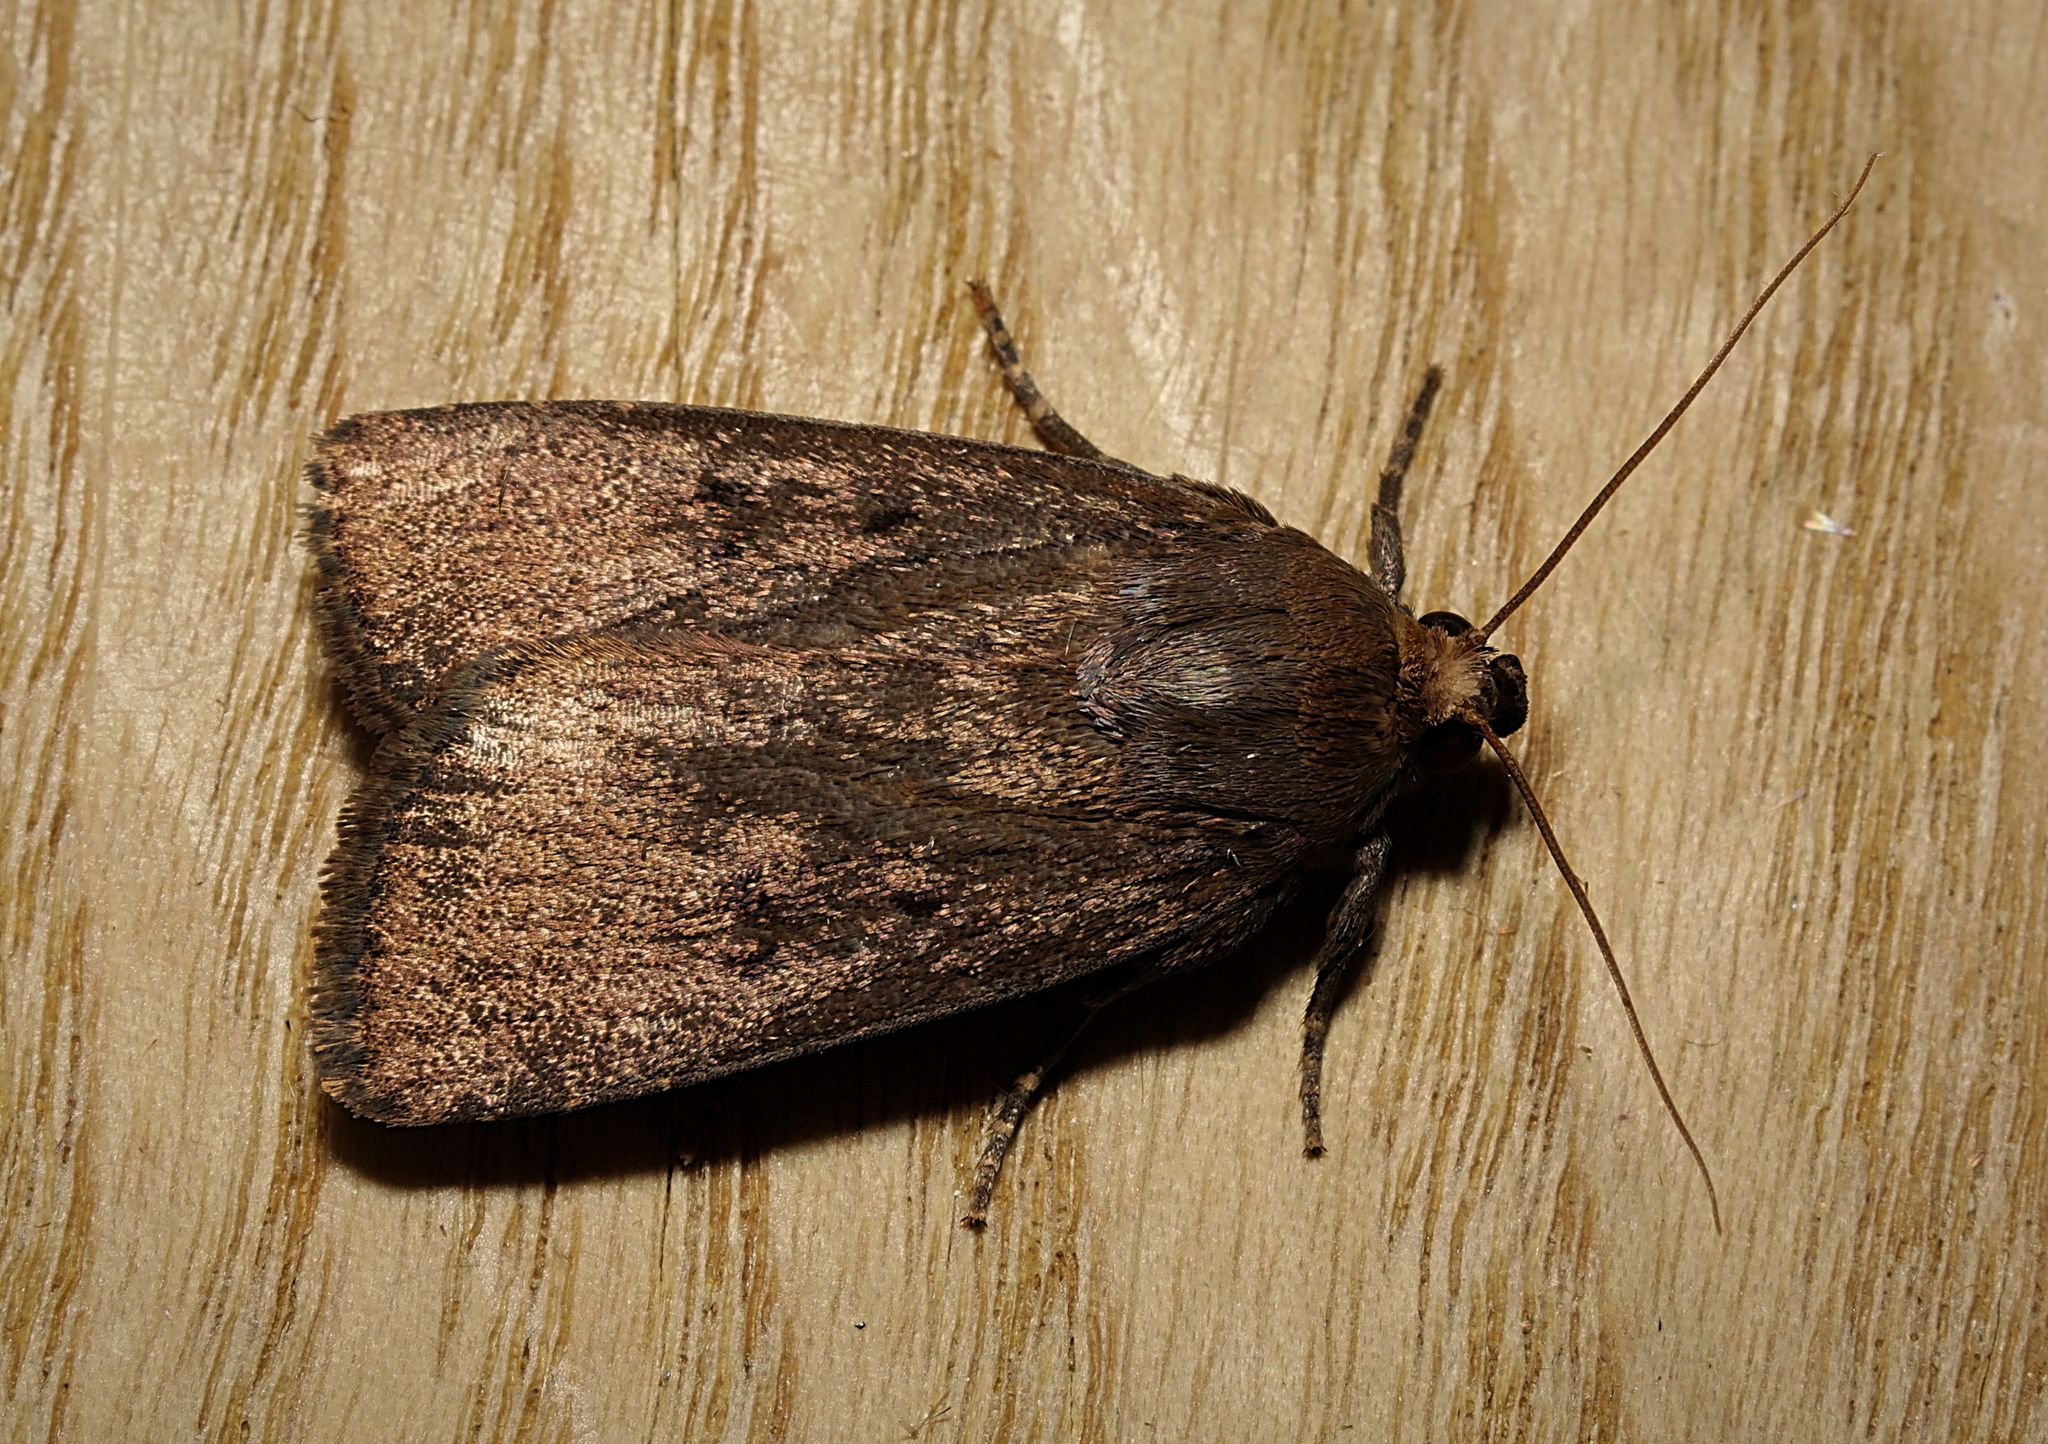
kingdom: Animalia
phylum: Arthropoda
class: Insecta
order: Lepidoptera
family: Noctuidae
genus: Amphipyra
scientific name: Amphipyra tragopoginis
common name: Mouse moth
